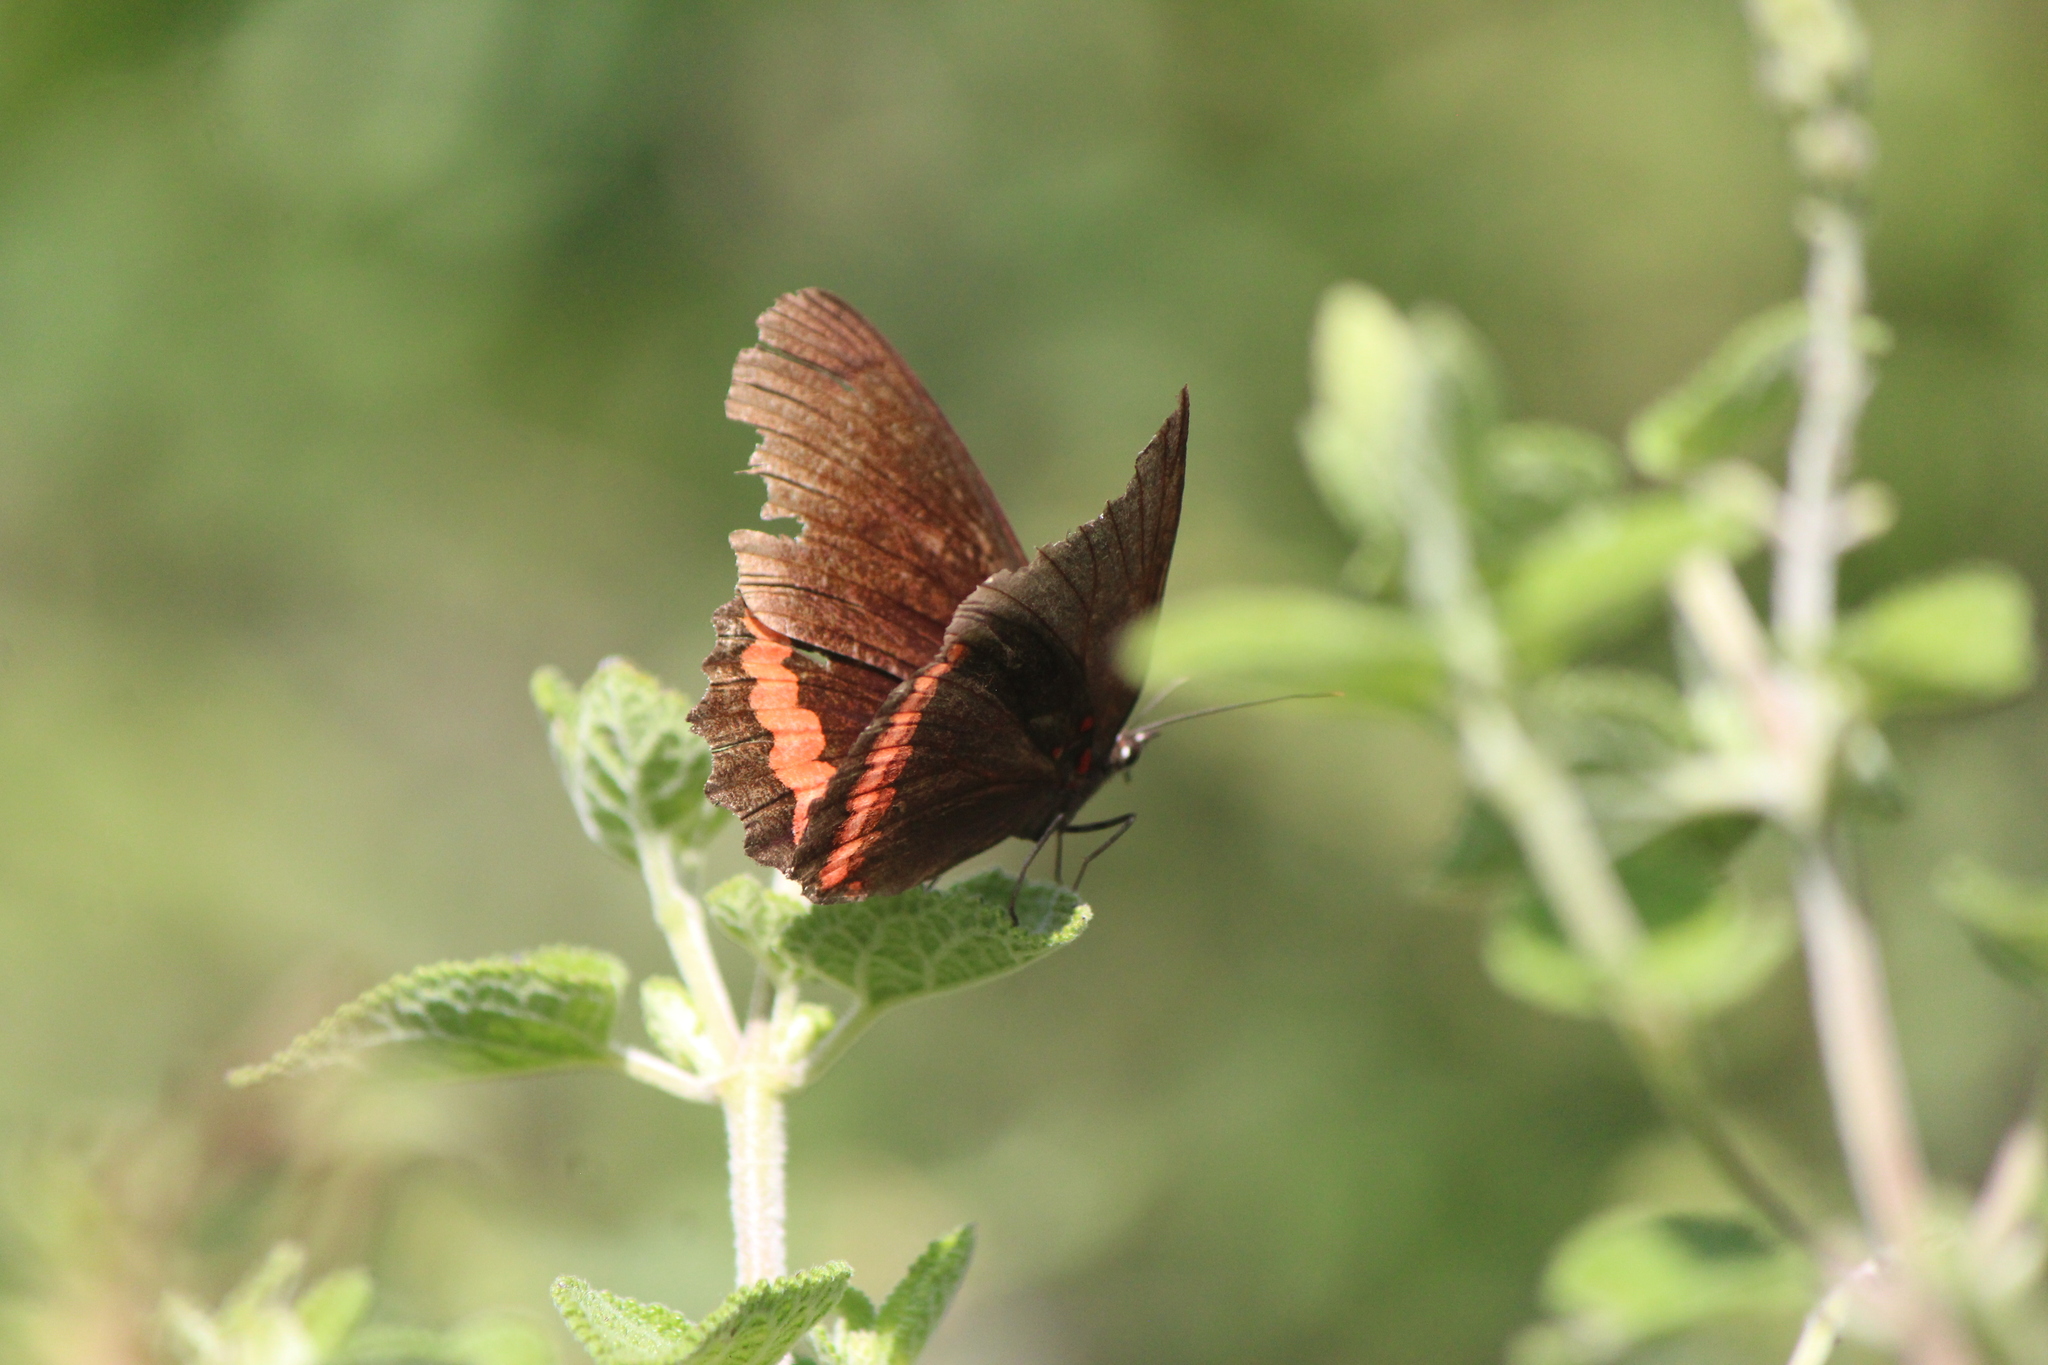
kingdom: Animalia
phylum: Arthropoda
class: Insecta
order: Lepidoptera
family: Nymphalidae
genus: Biblis
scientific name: Biblis aganisa
